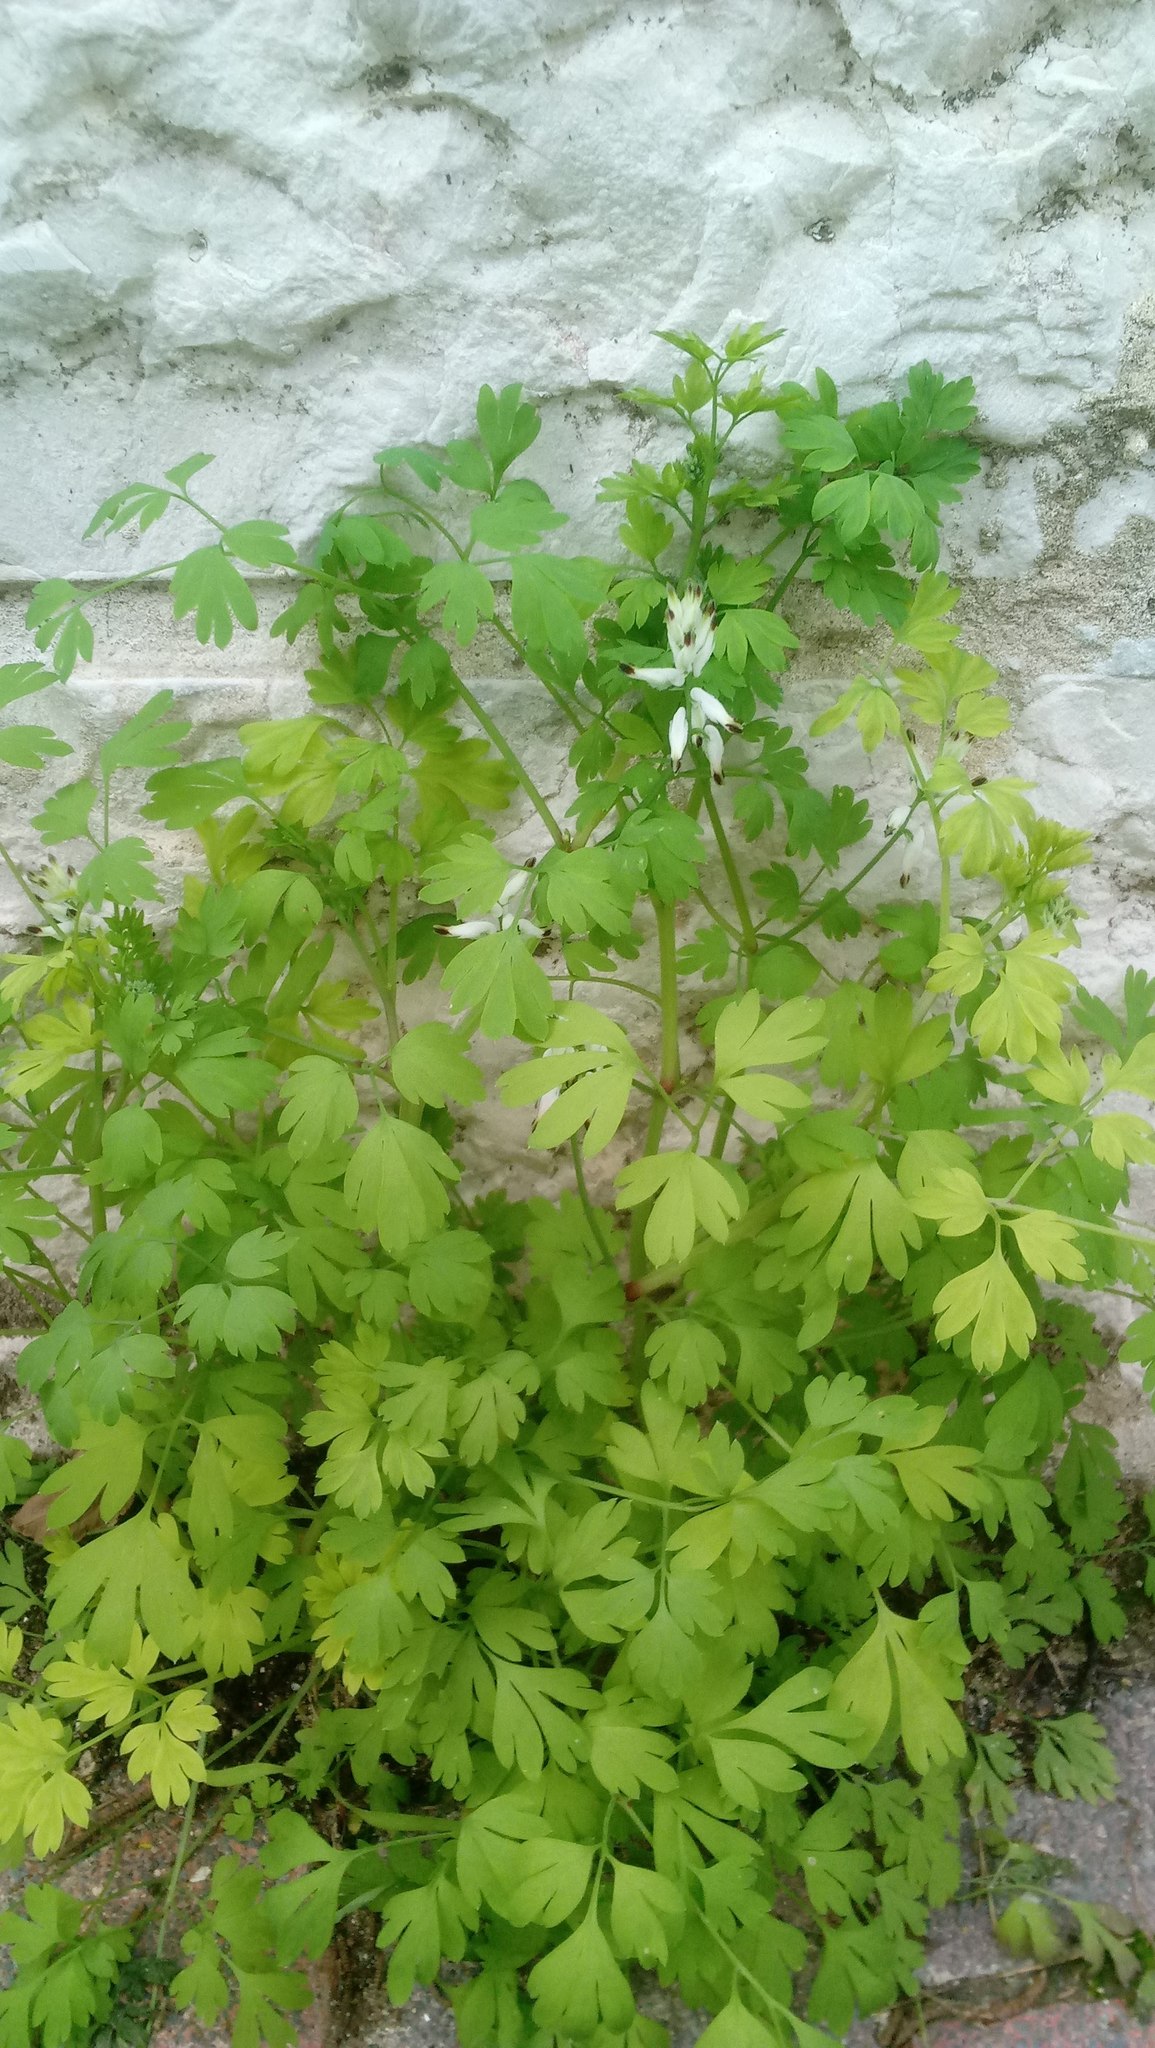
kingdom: Plantae
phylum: Tracheophyta
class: Magnoliopsida
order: Ranunculales
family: Papaveraceae
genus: Fumaria
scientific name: Fumaria capreolata
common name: White ramping-fumitory
